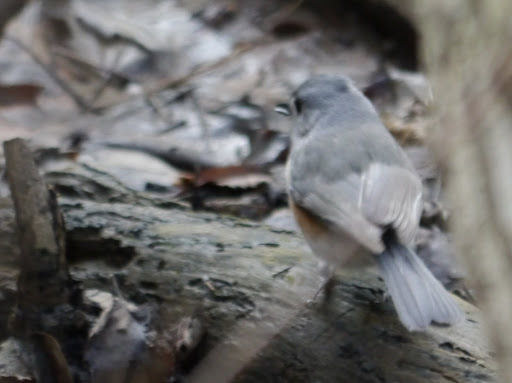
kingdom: Animalia
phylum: Chordata
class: Aves
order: Passeriformes
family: Paridae
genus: Baeolophus
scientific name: Baeolophus bicolor
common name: Tufted titmouse
